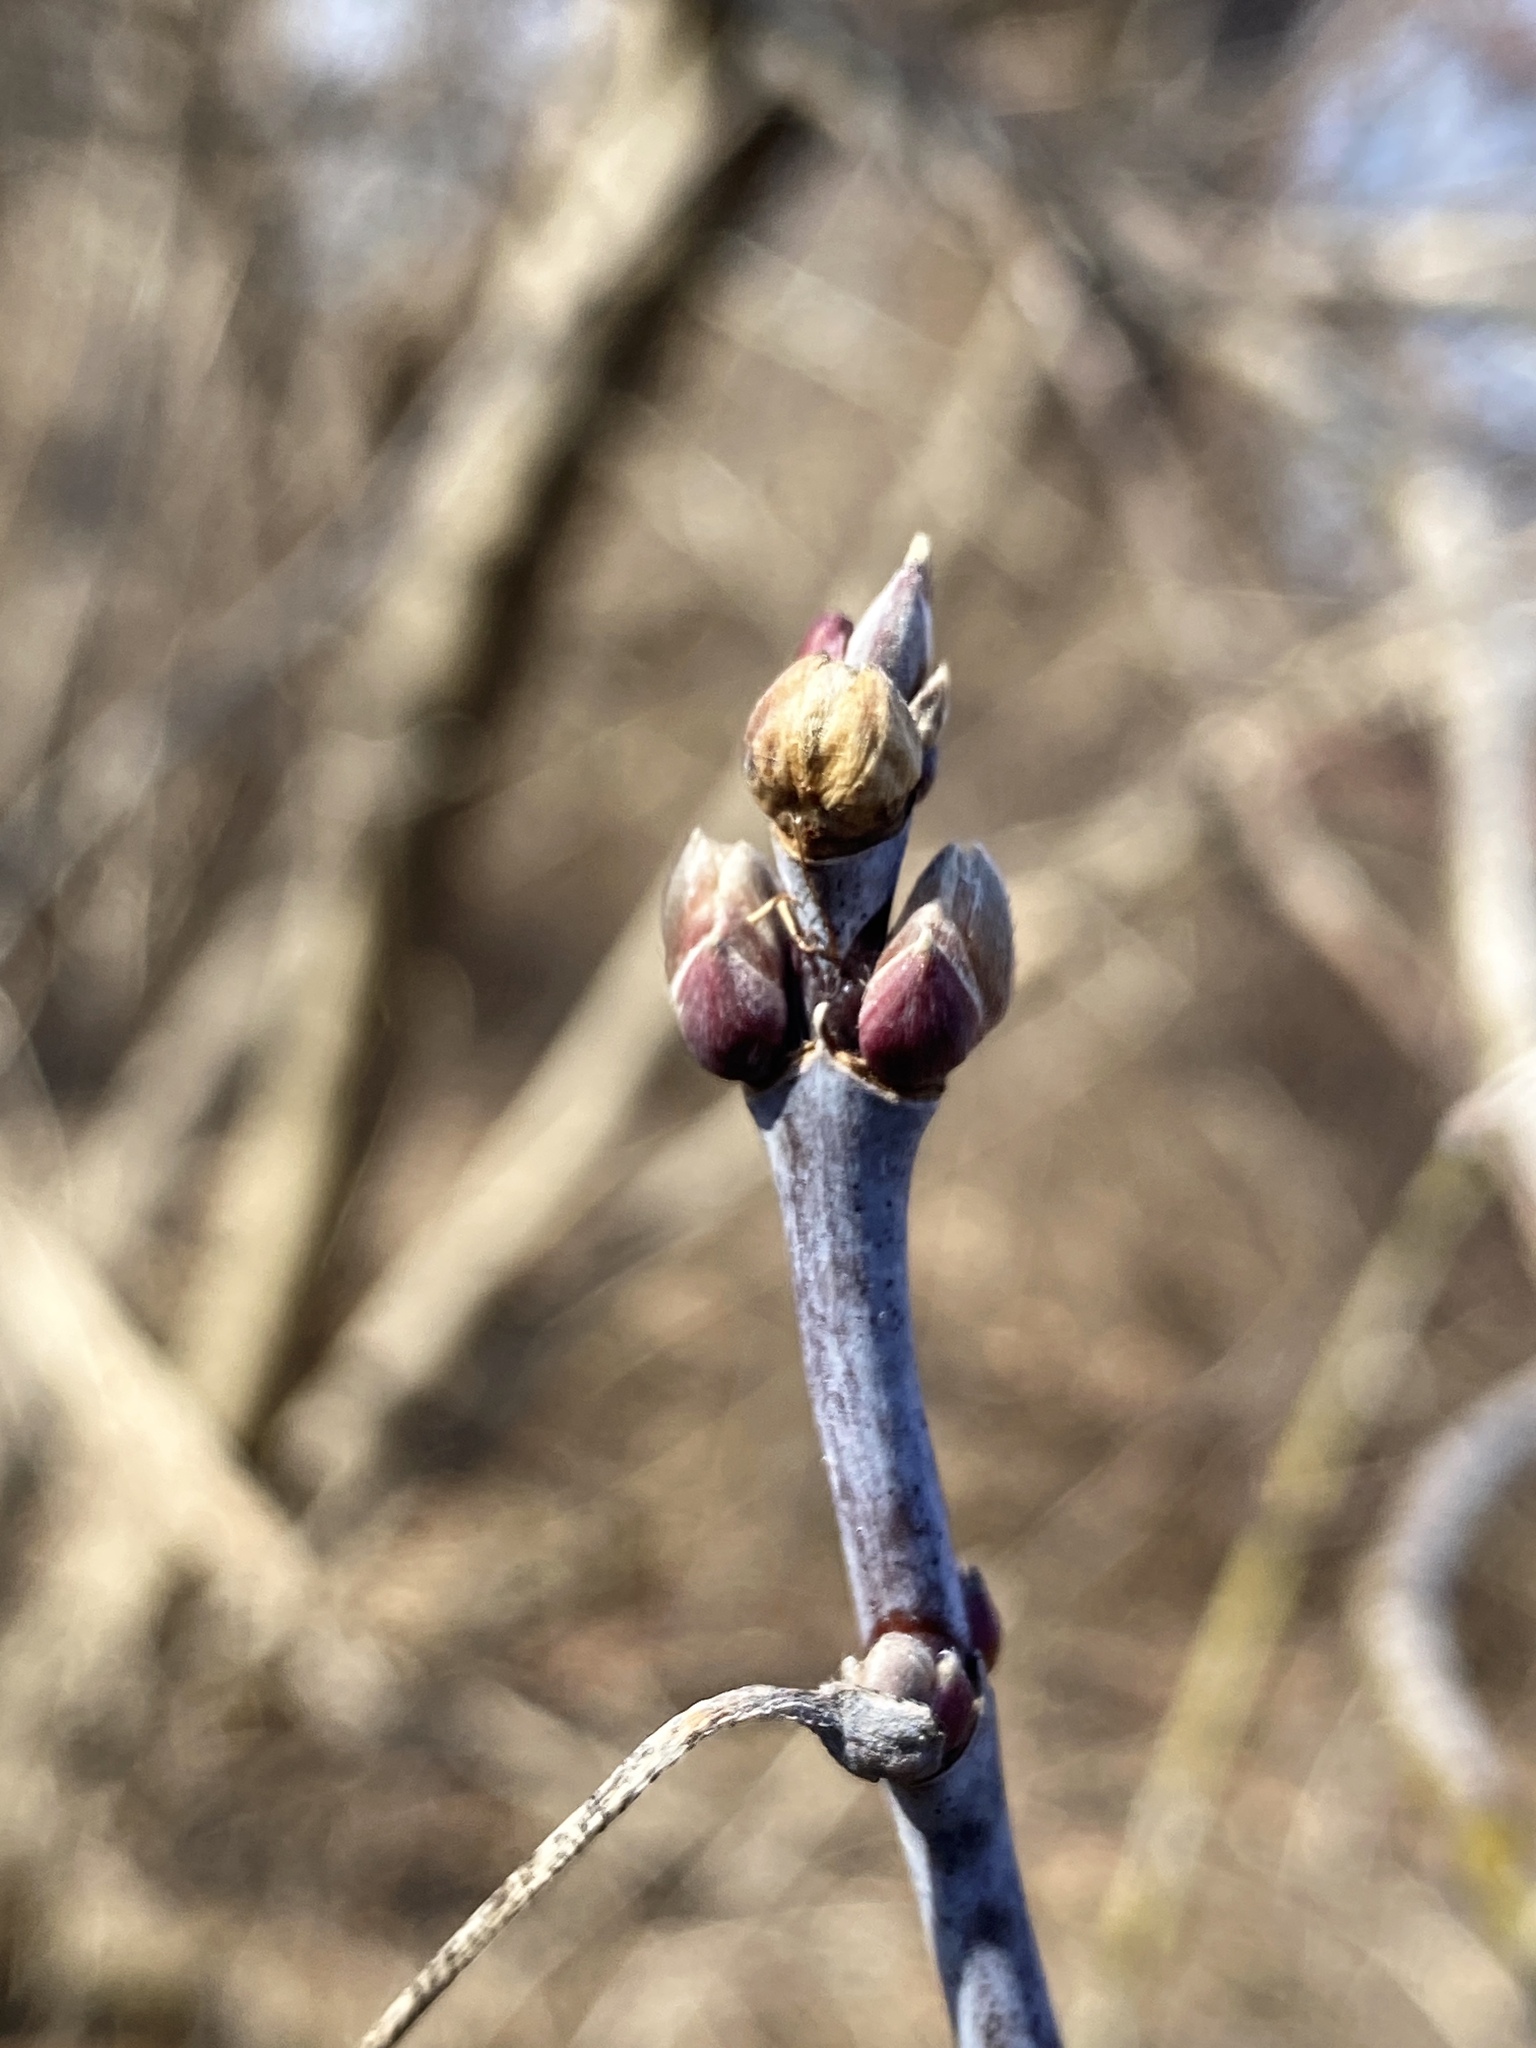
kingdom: Plantae
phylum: Tracheophyta
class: Magnoliopsida
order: Sapindales
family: Sapindaceae
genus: Acer
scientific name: Acer negundo
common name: Ashleaf maple
